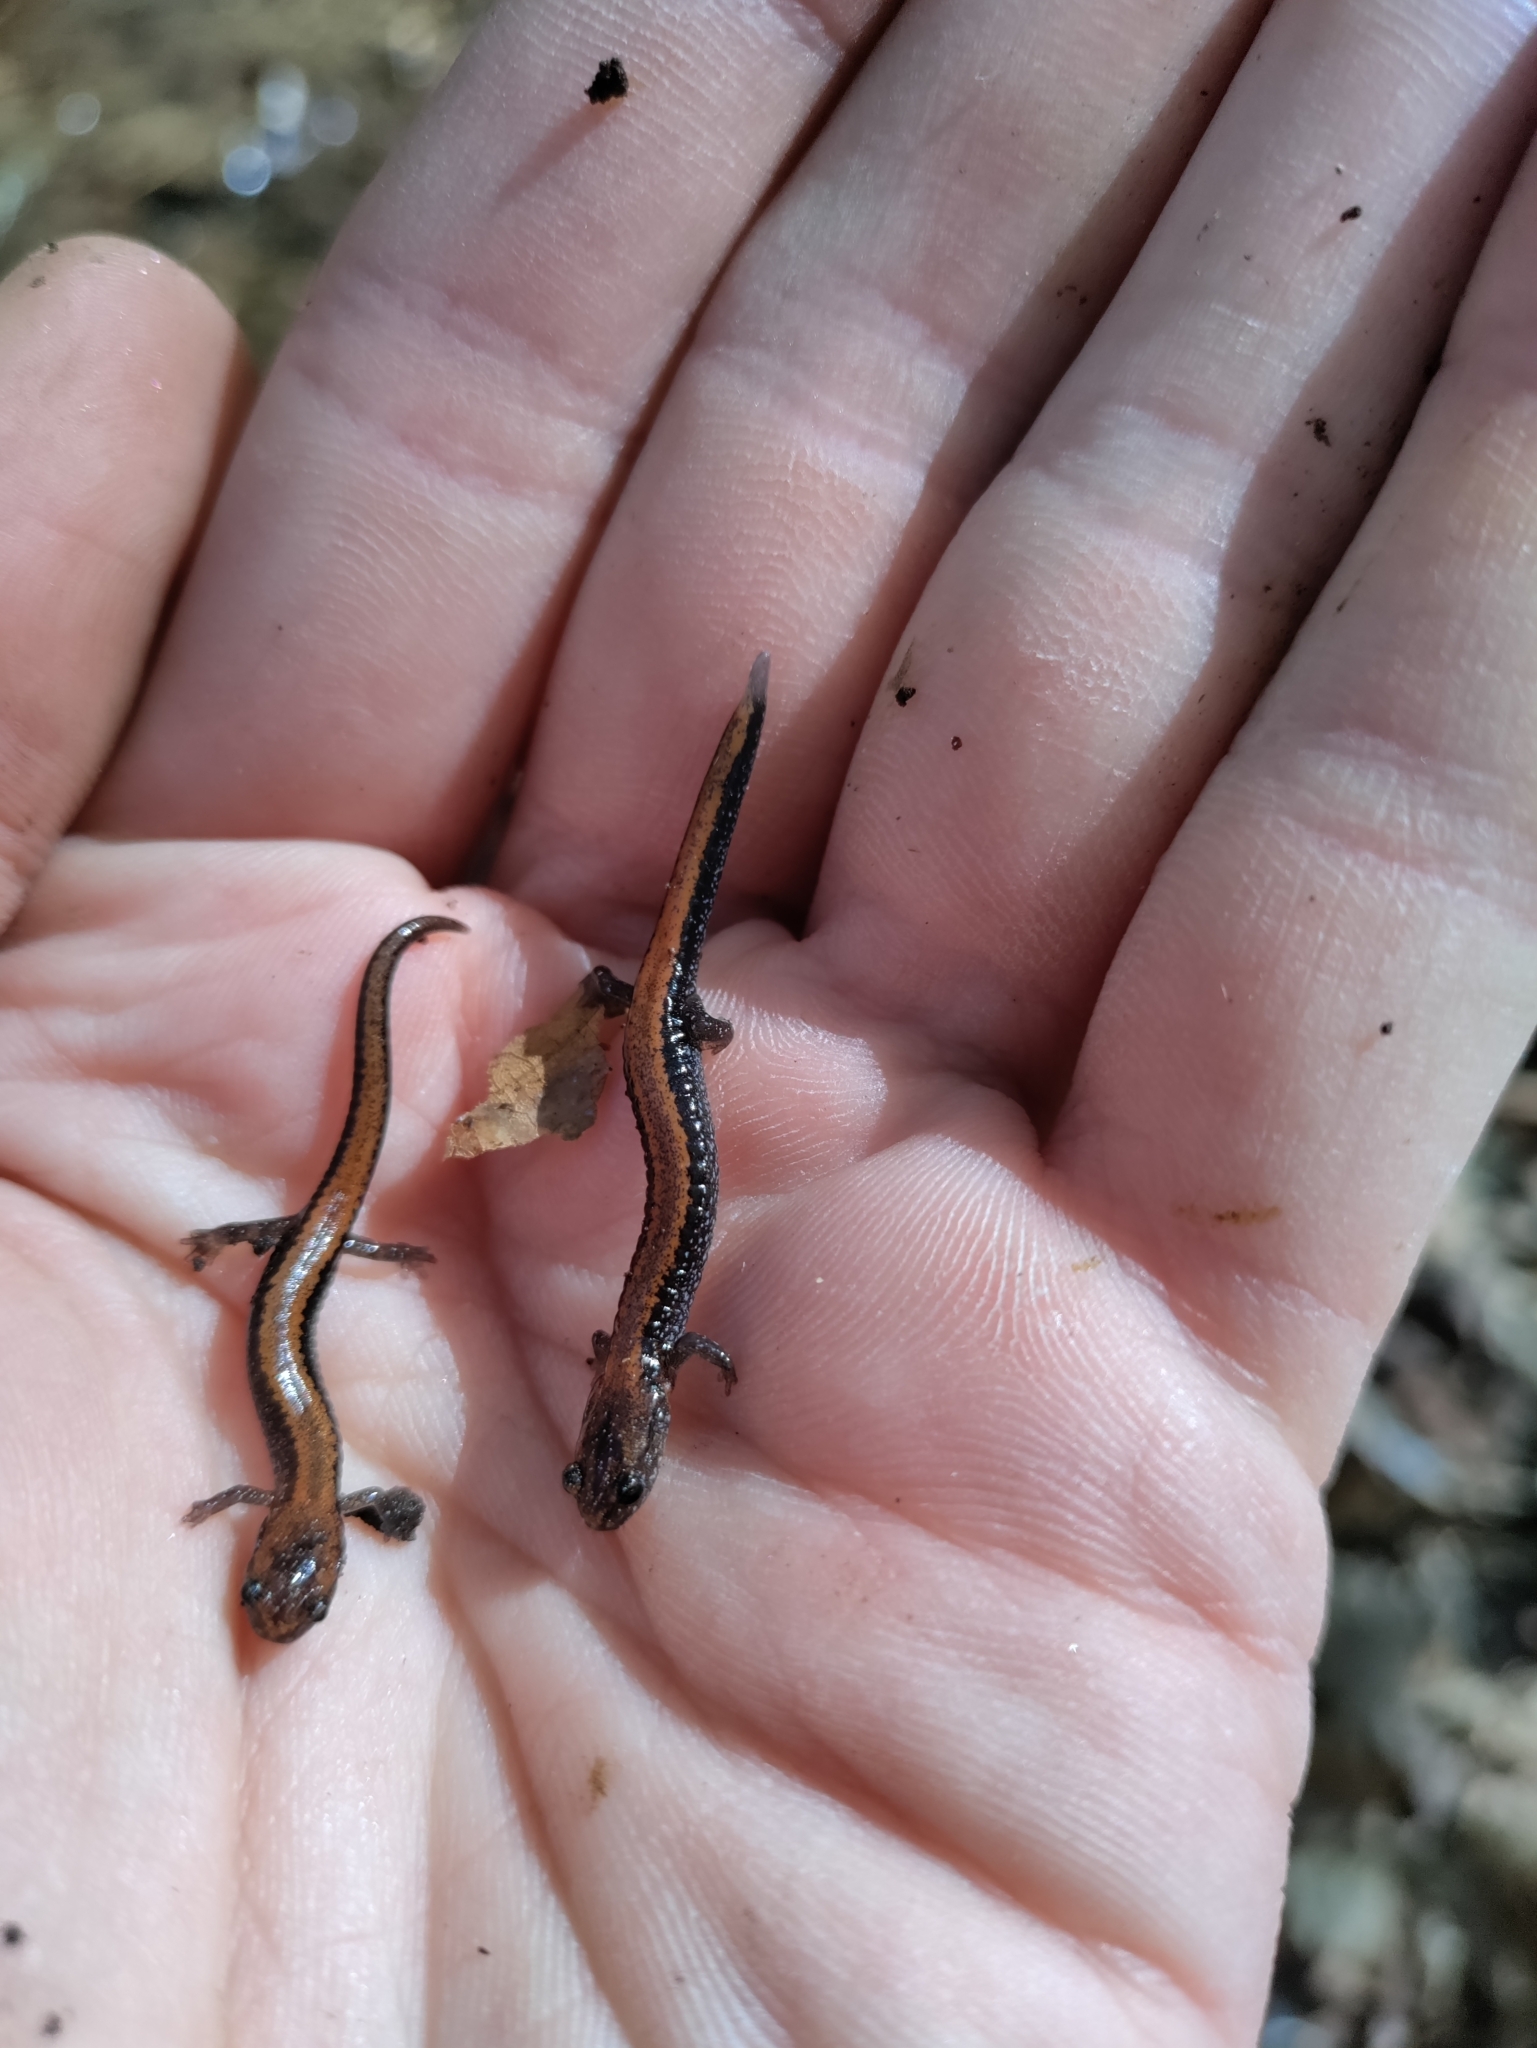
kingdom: Animalia
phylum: Chordata
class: Amphibia
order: Caudata
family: Plethodontidae
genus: Plethodon
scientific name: Plethodon cinereus
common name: Redback salamander
